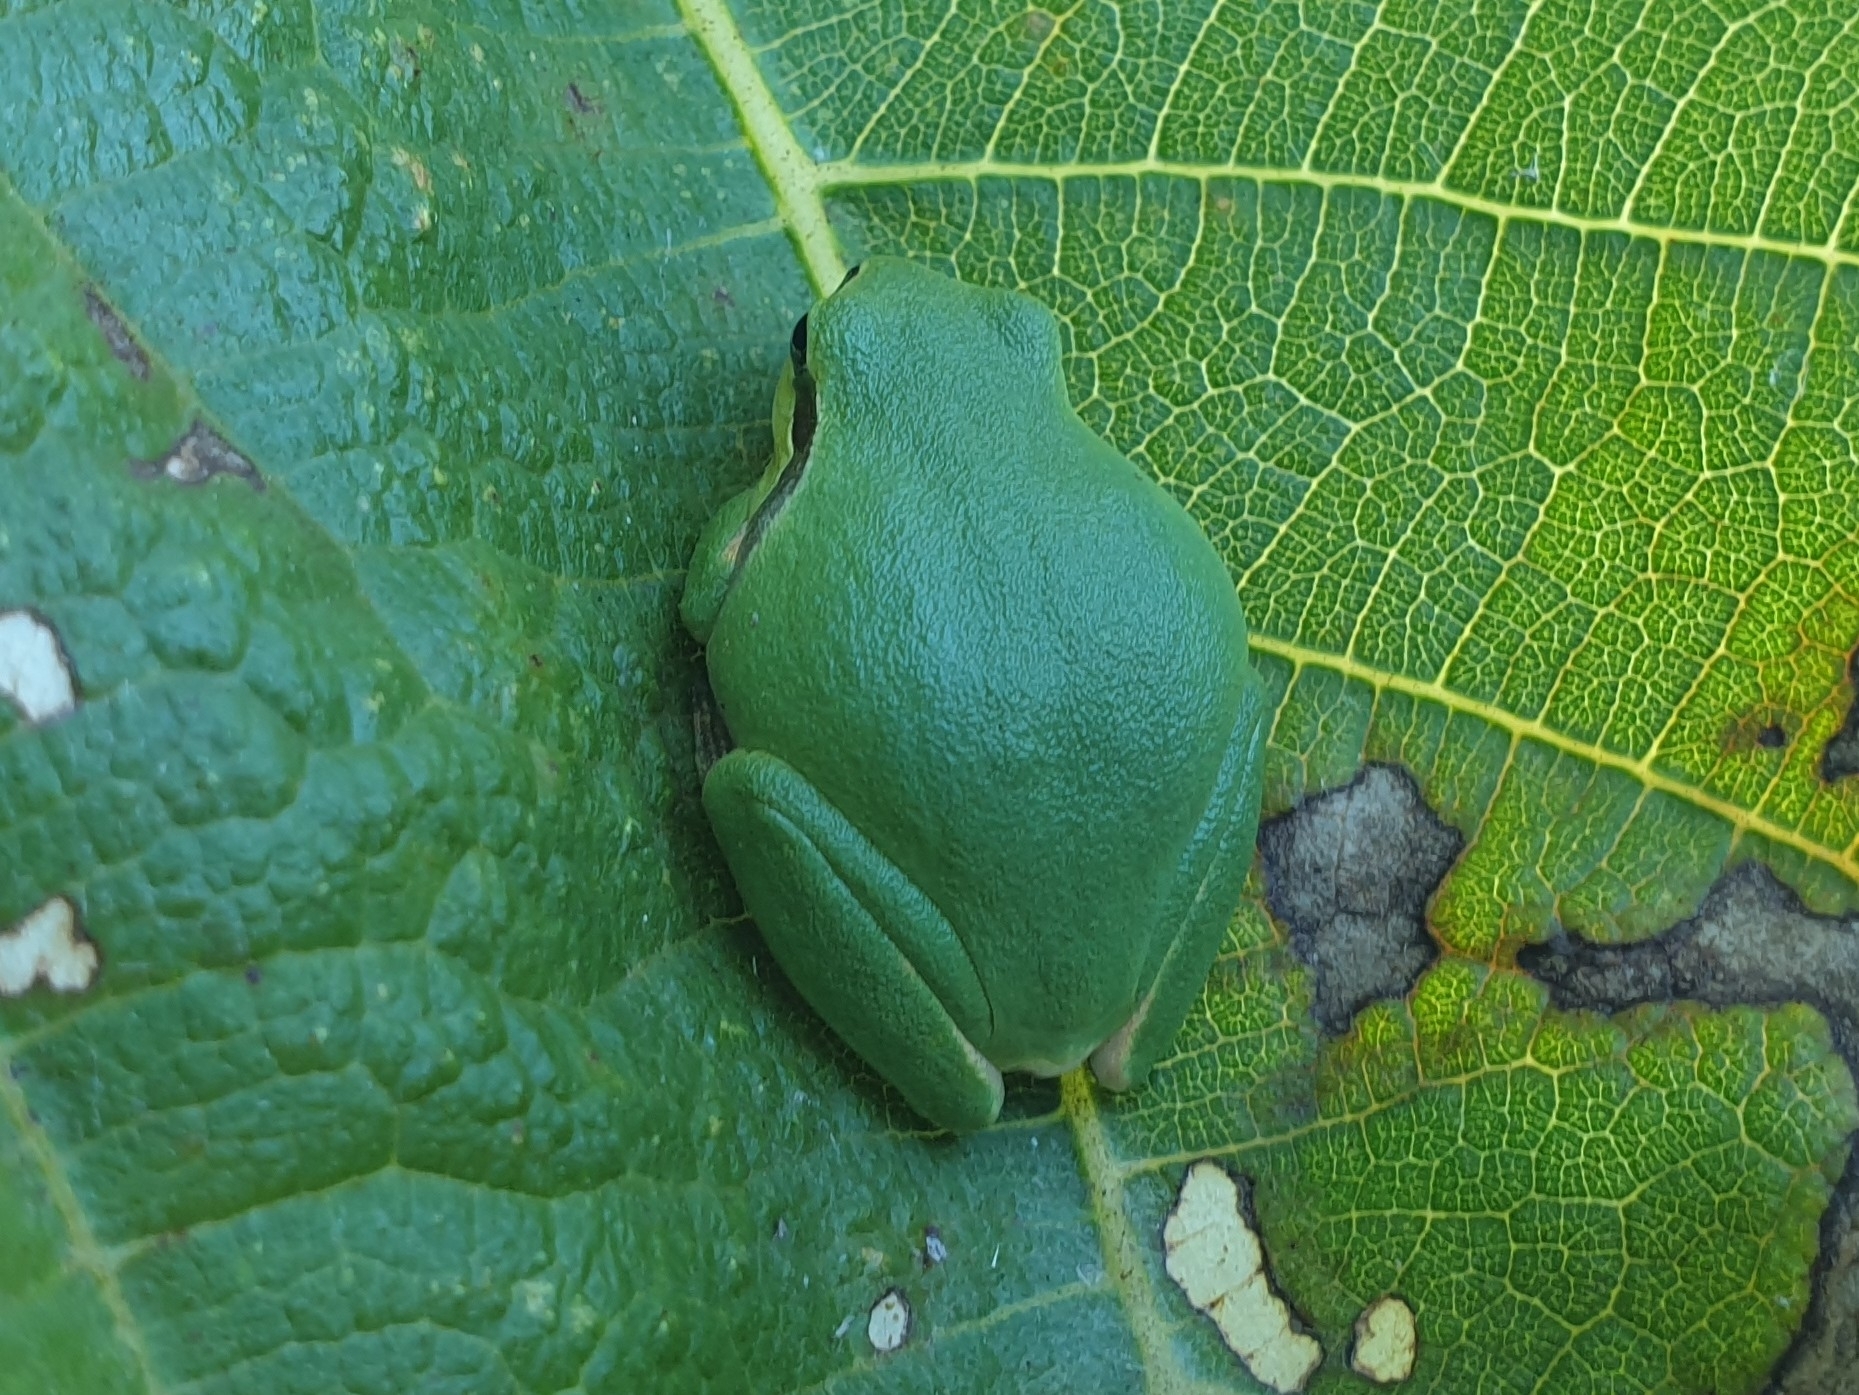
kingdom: Animalia
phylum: Chordata
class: Amphibia
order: Anura
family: Hylidae
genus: Hyla
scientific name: Hyla arborea
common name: Common tree frog
